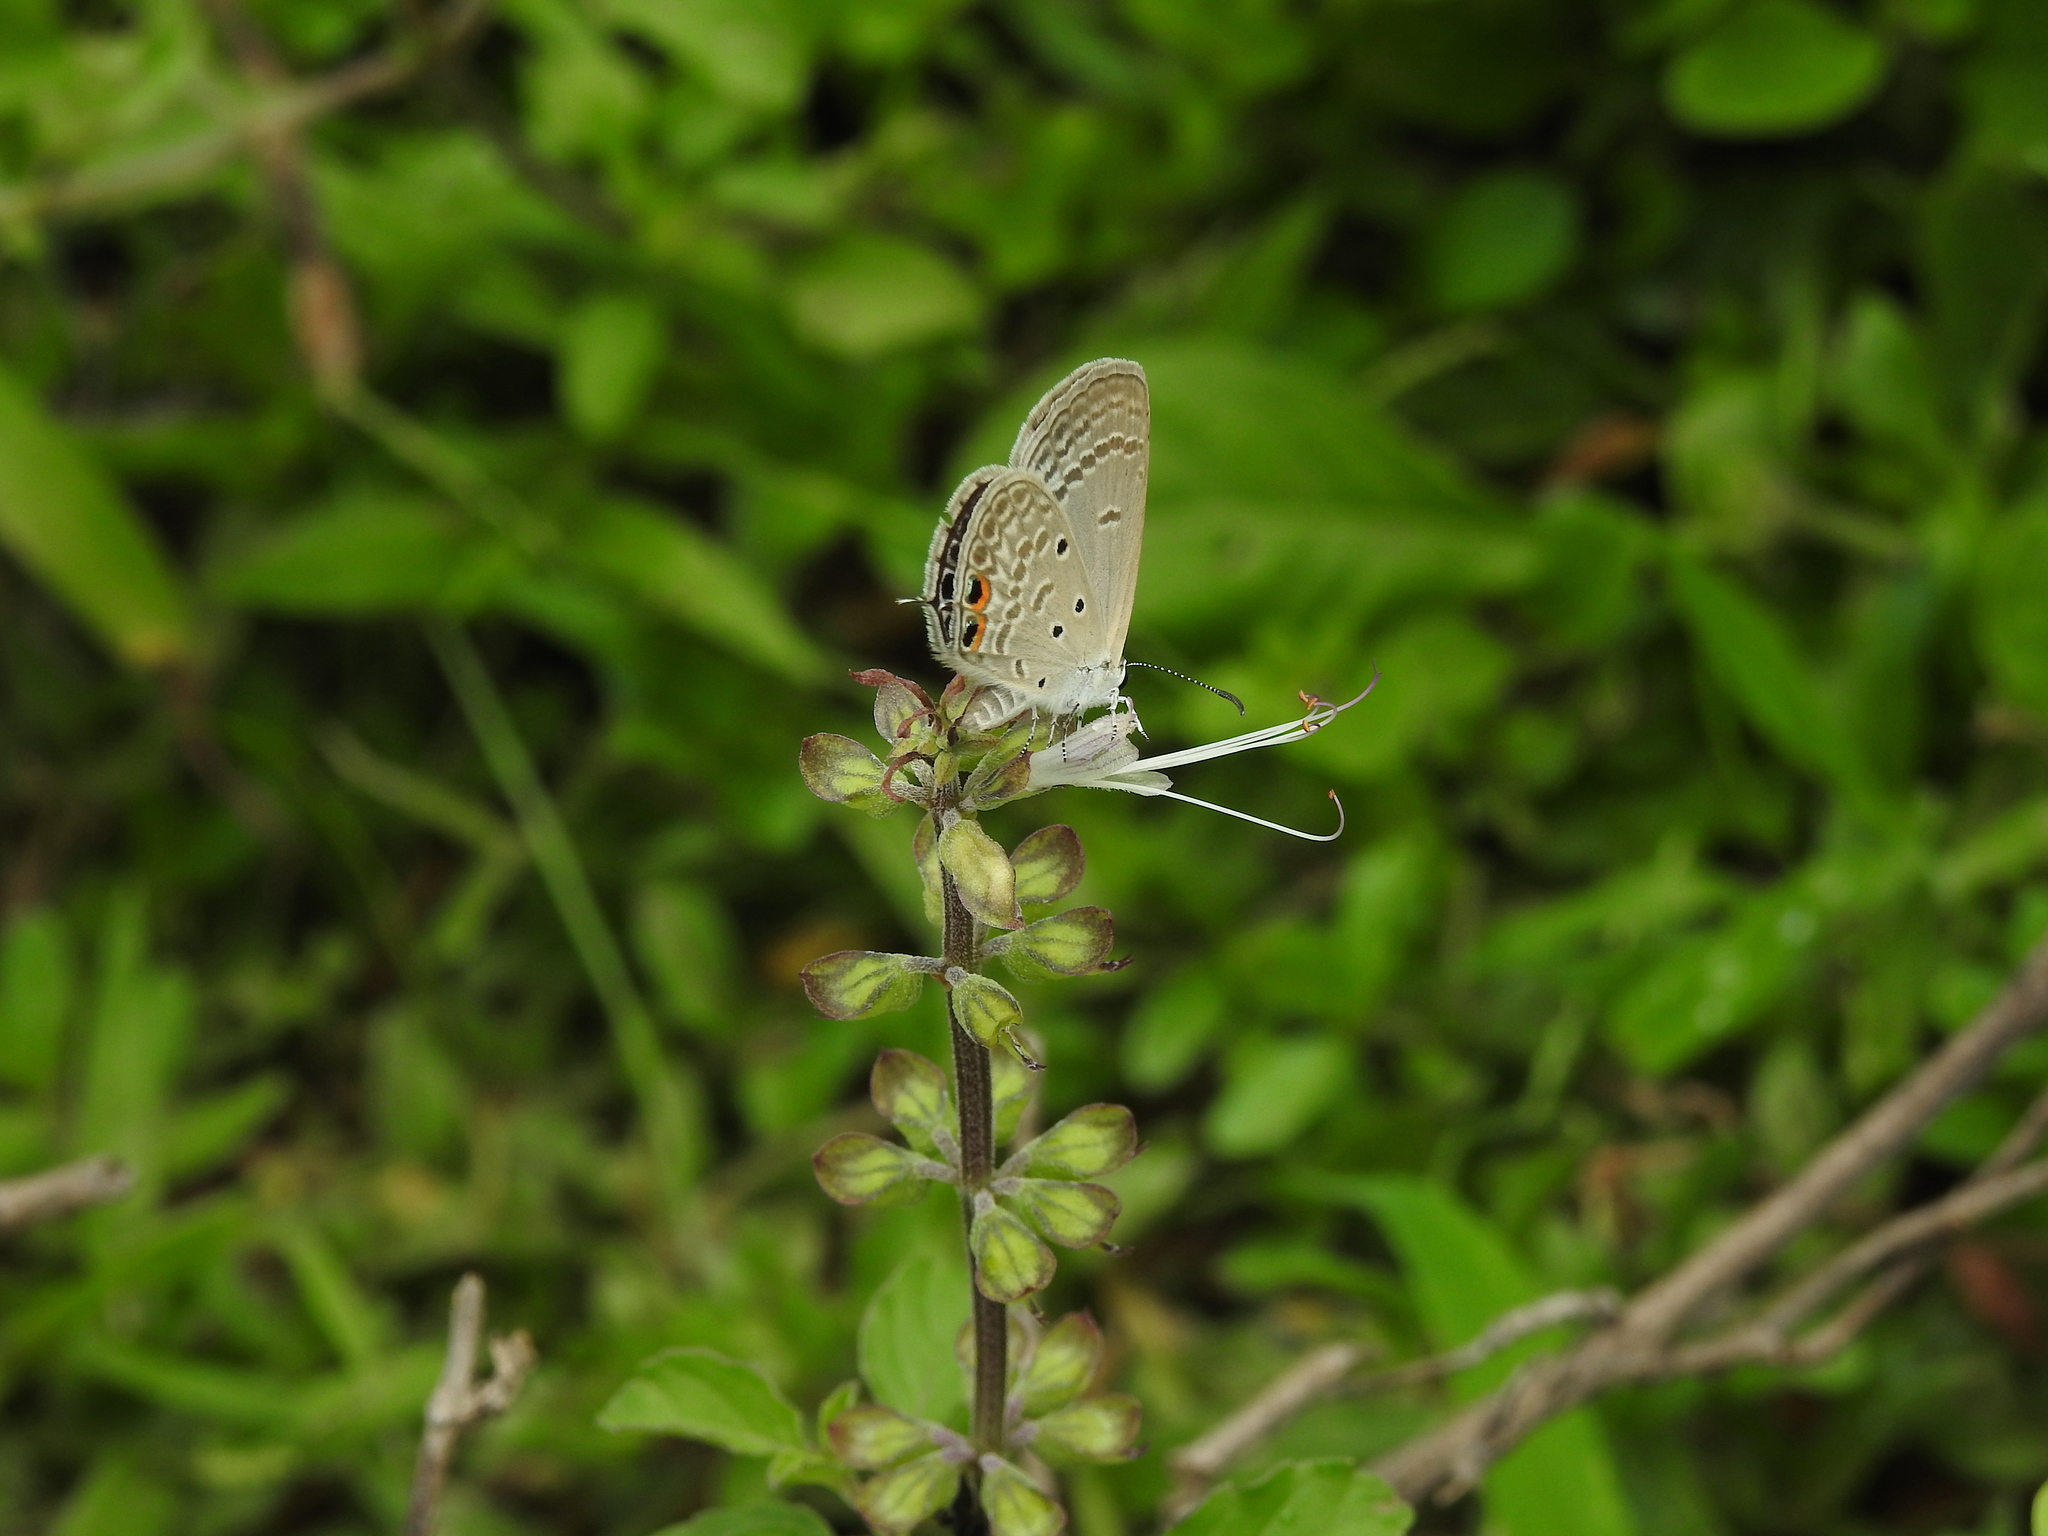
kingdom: Animalia
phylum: Arthropoda
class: Insecta
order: Lepidoptera
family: Lycaenidae
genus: Euchrysops
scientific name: Euchrysops cnejus
